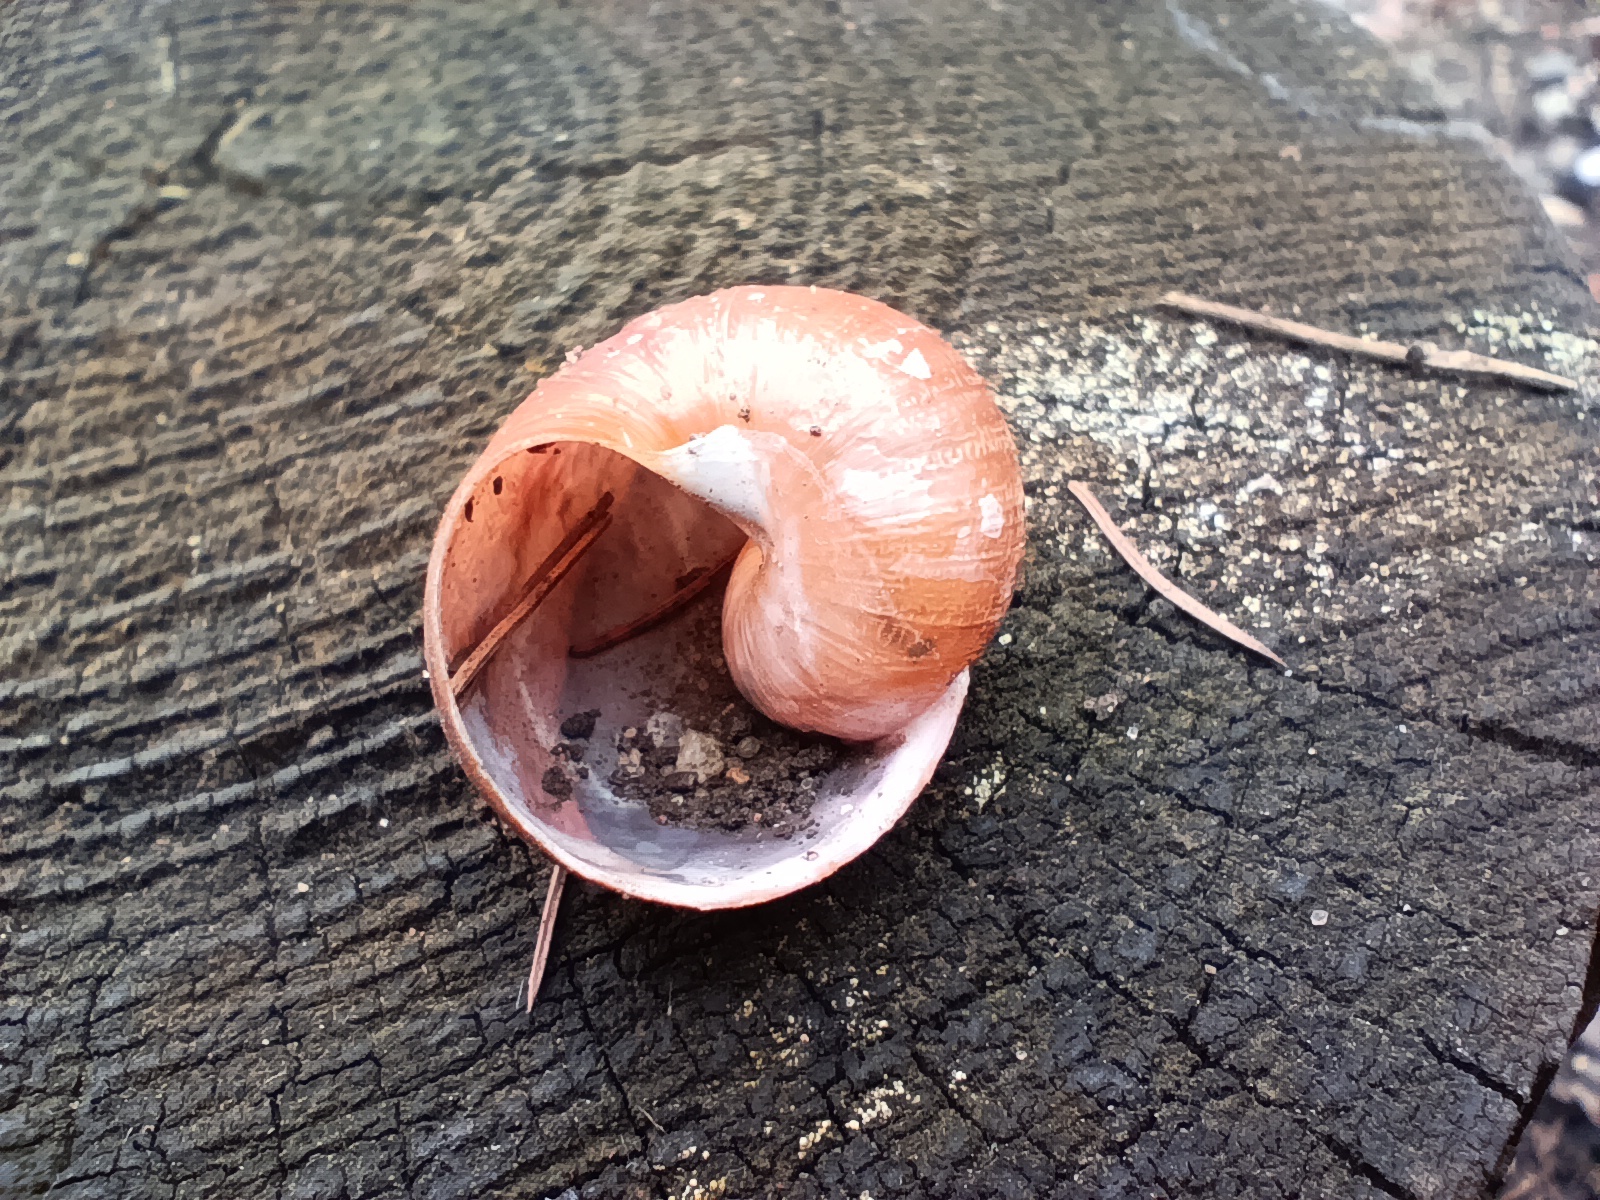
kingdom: Animalia
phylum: Mollusca
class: Gastropoda
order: Stylommatophora
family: Helicidae
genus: Cornu
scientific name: Cornu aspersum
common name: Brown garden snail
